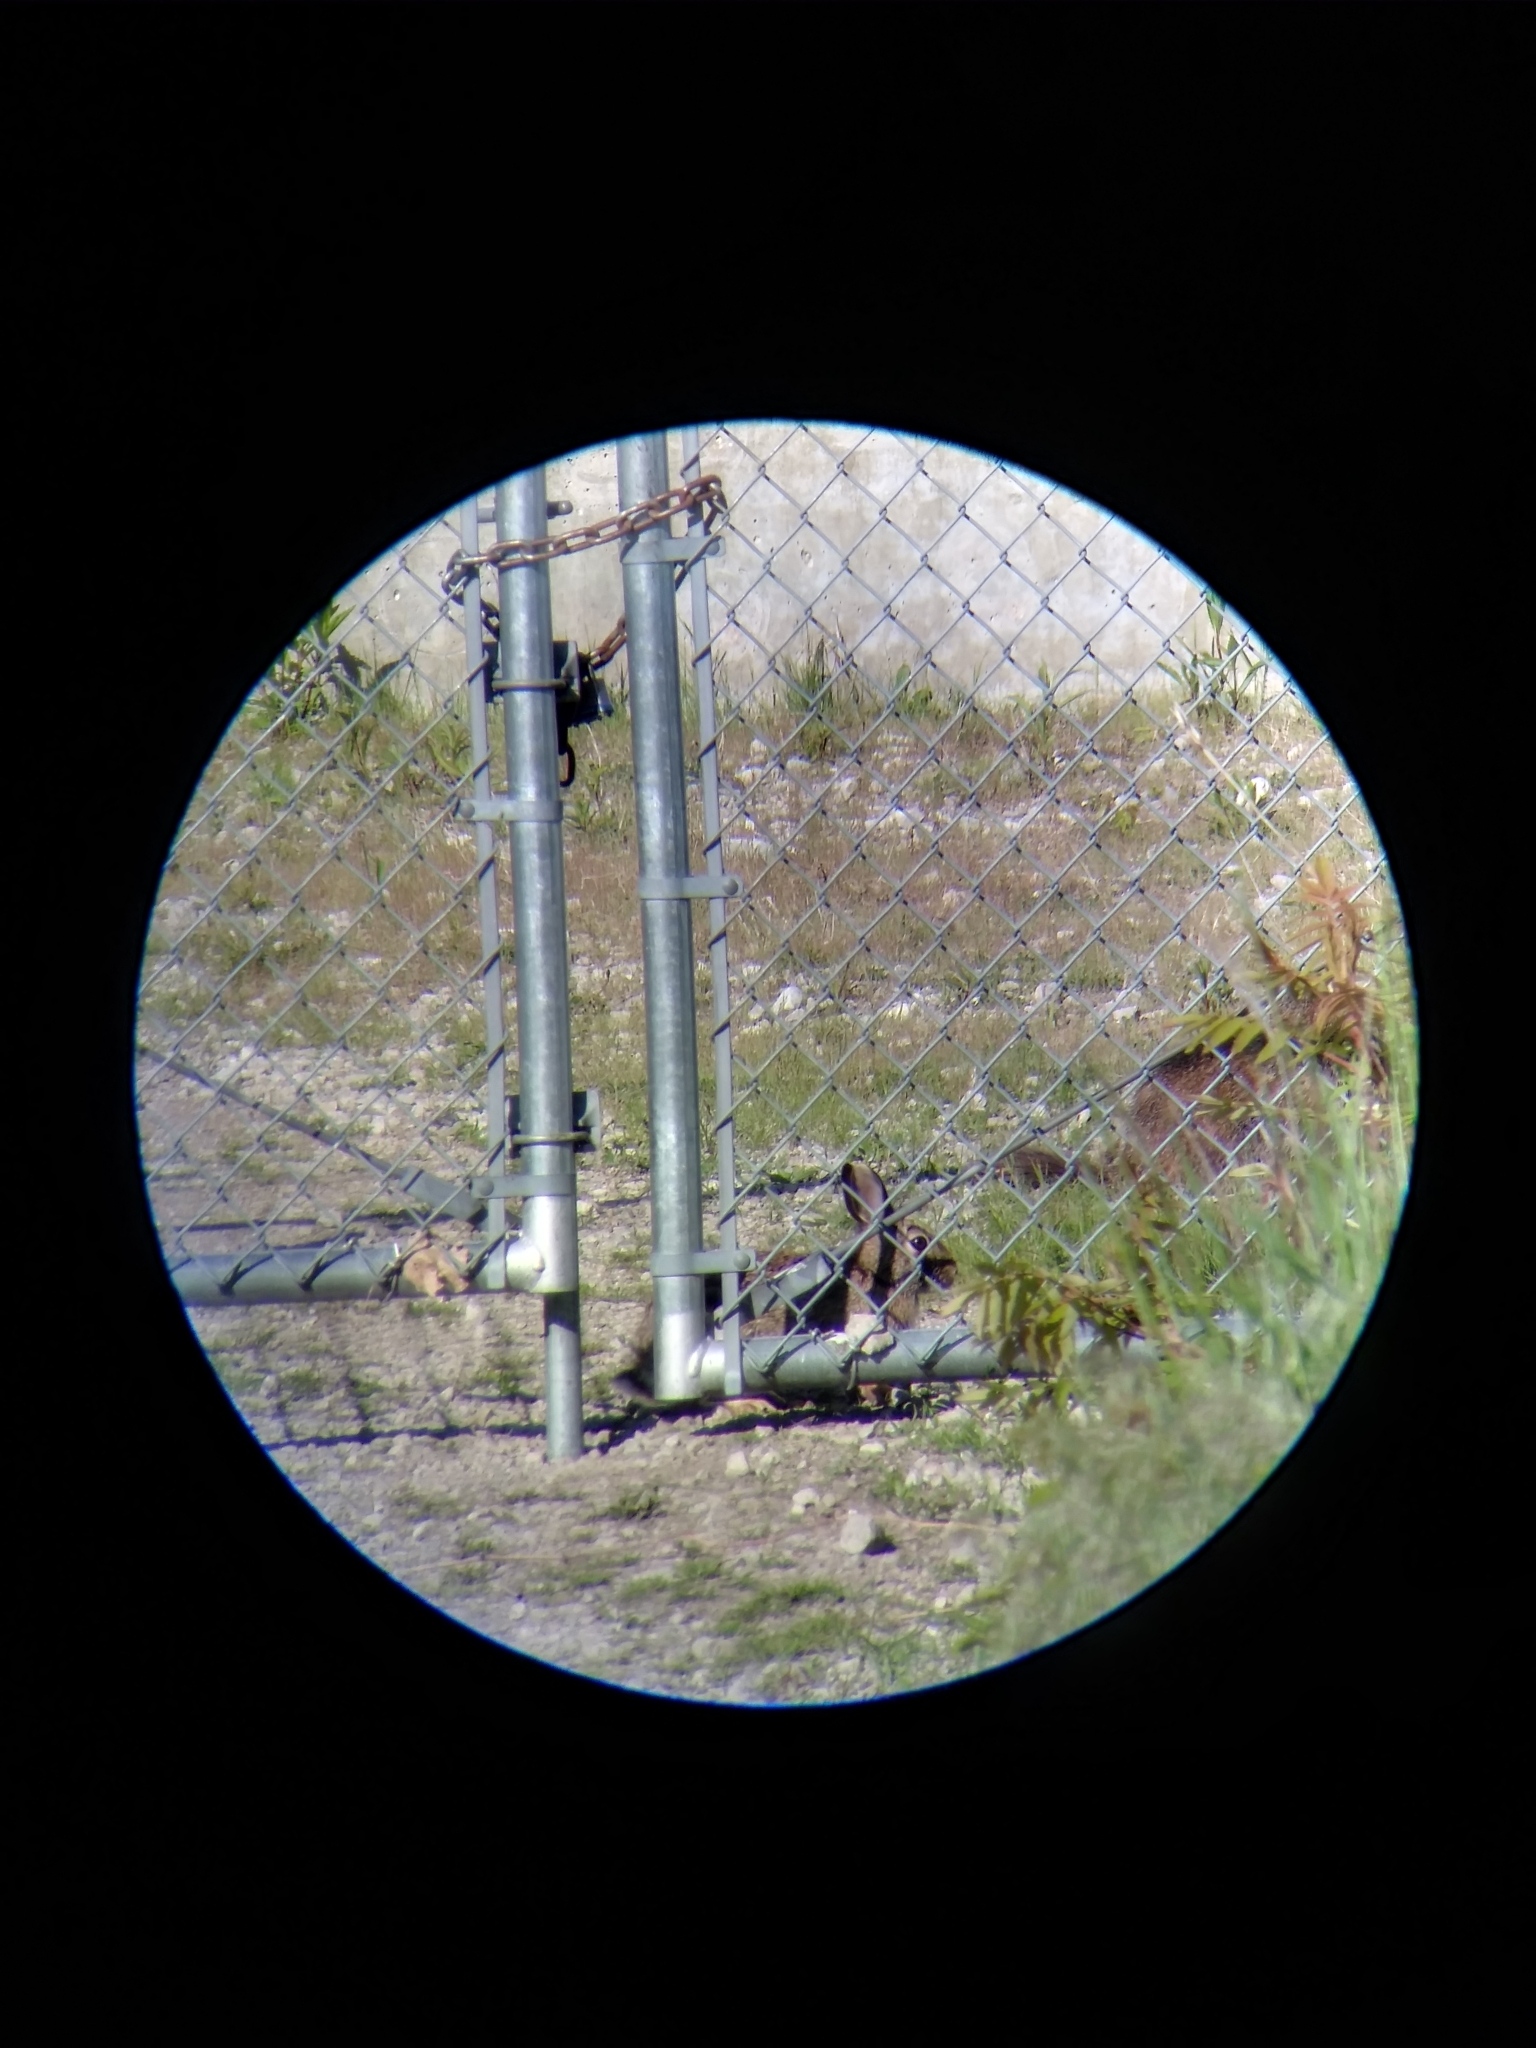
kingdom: Animalia
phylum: Chordata
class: Mammalia
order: Lagomorpha
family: Leporidae
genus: Sylvilagus
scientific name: Sylvilagus floridanus
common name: Eastern cottontail
